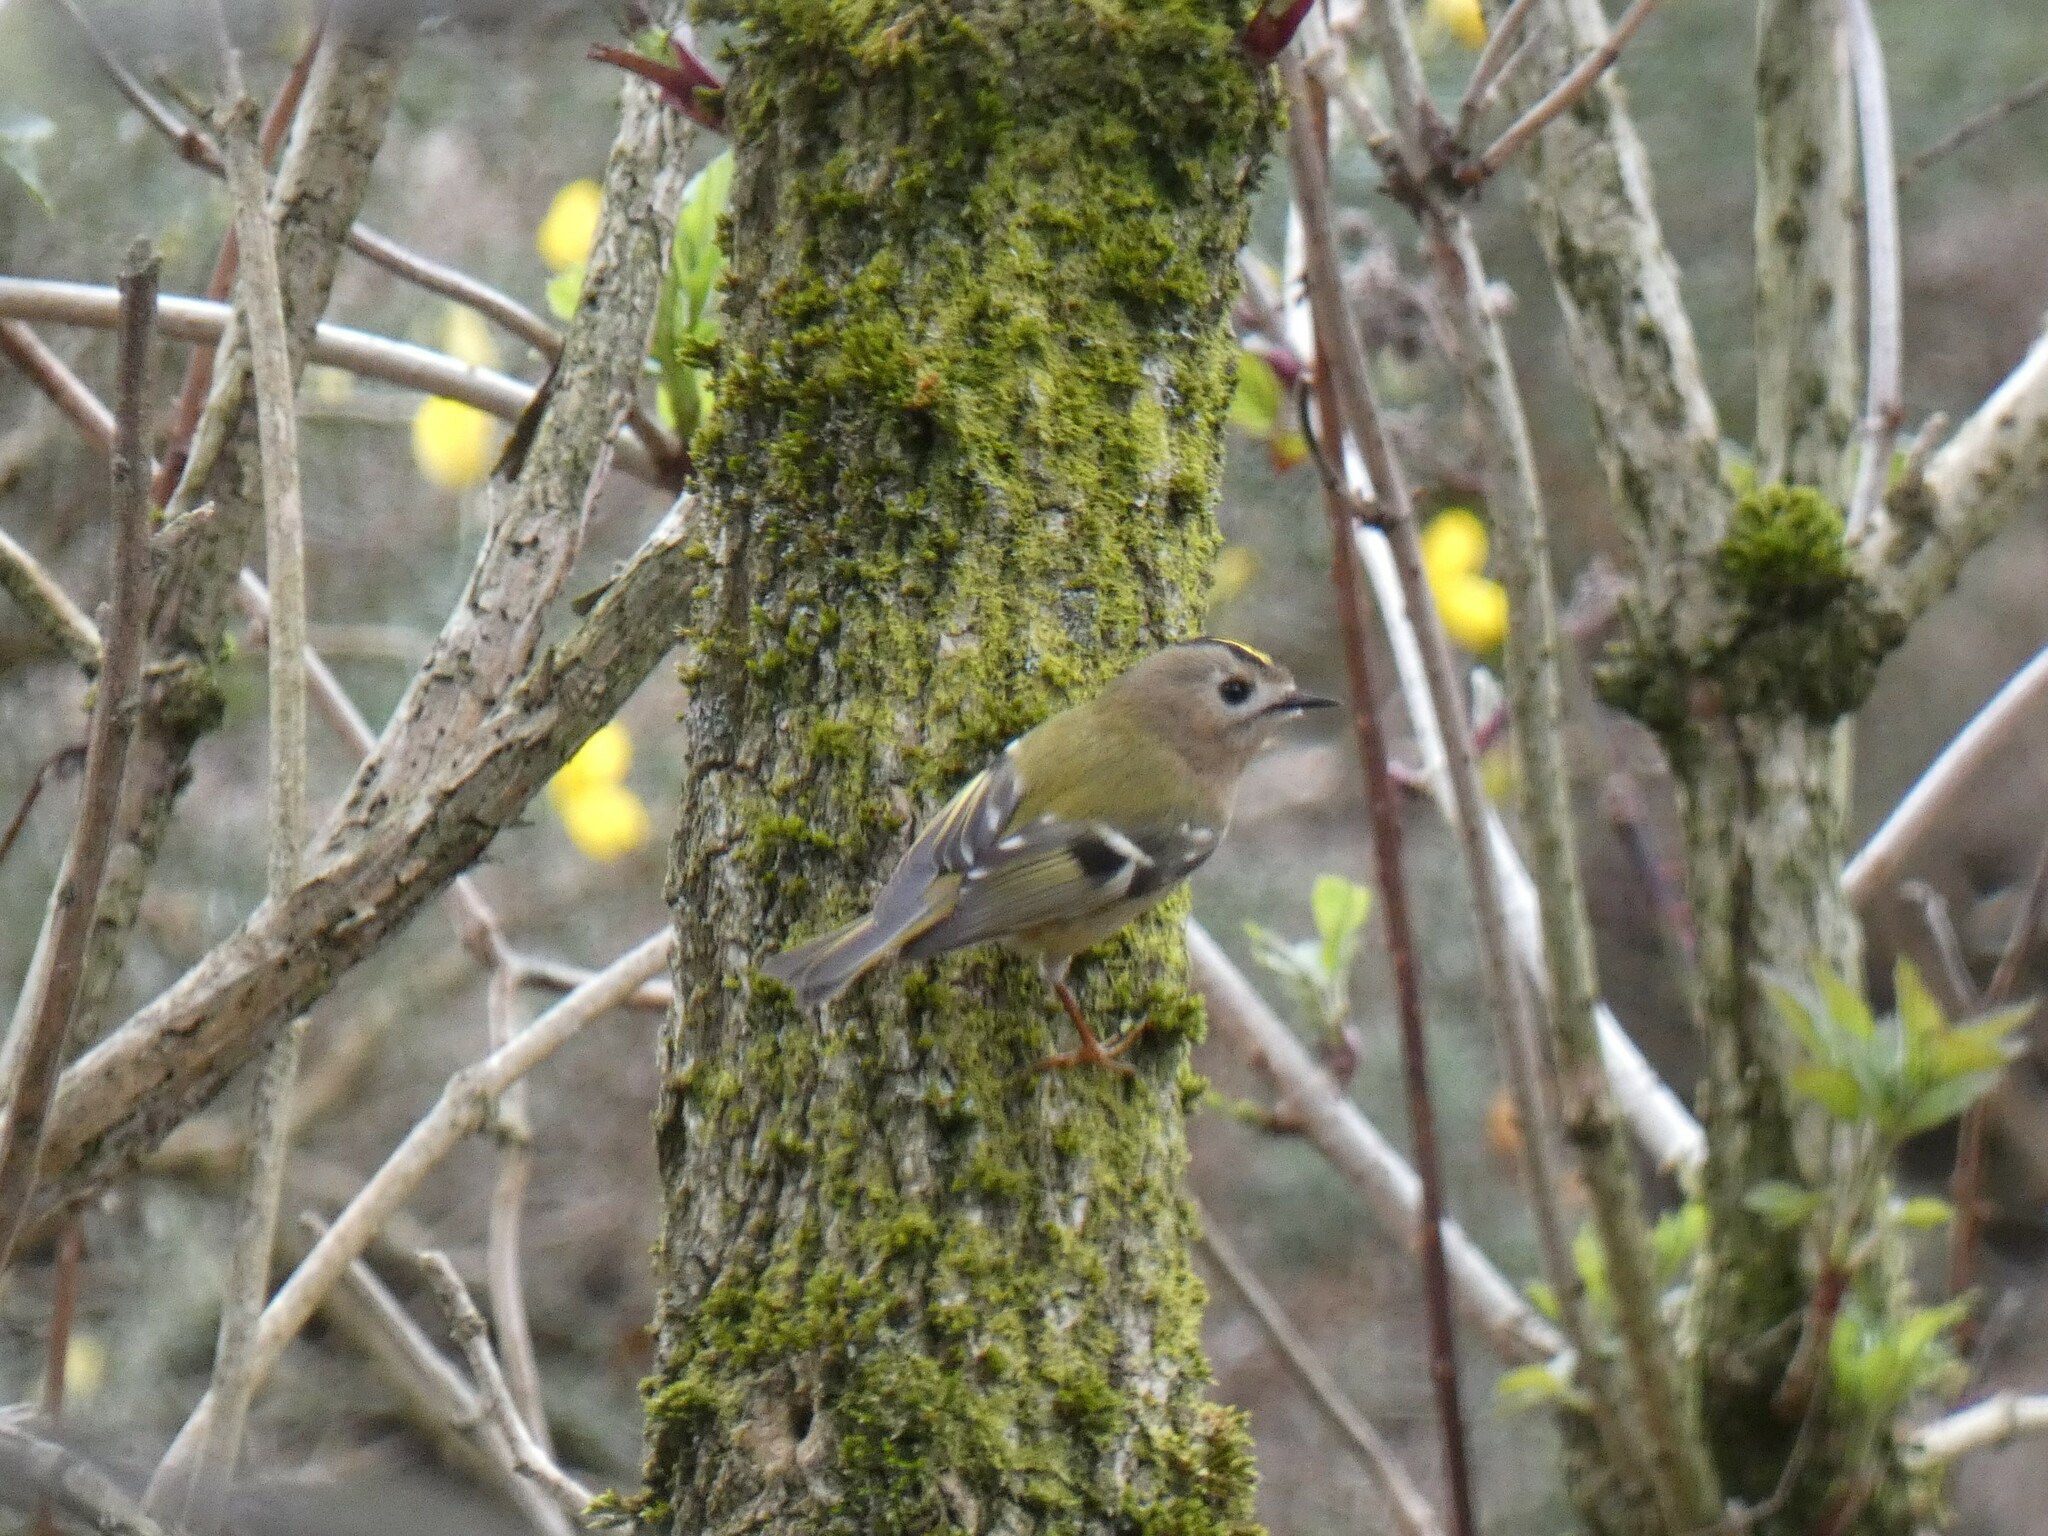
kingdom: Animalia
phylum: Chordata
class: Aves
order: Passeriformes
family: Regulidae
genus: Regulus
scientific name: Regulus regulus
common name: Goldcrest
